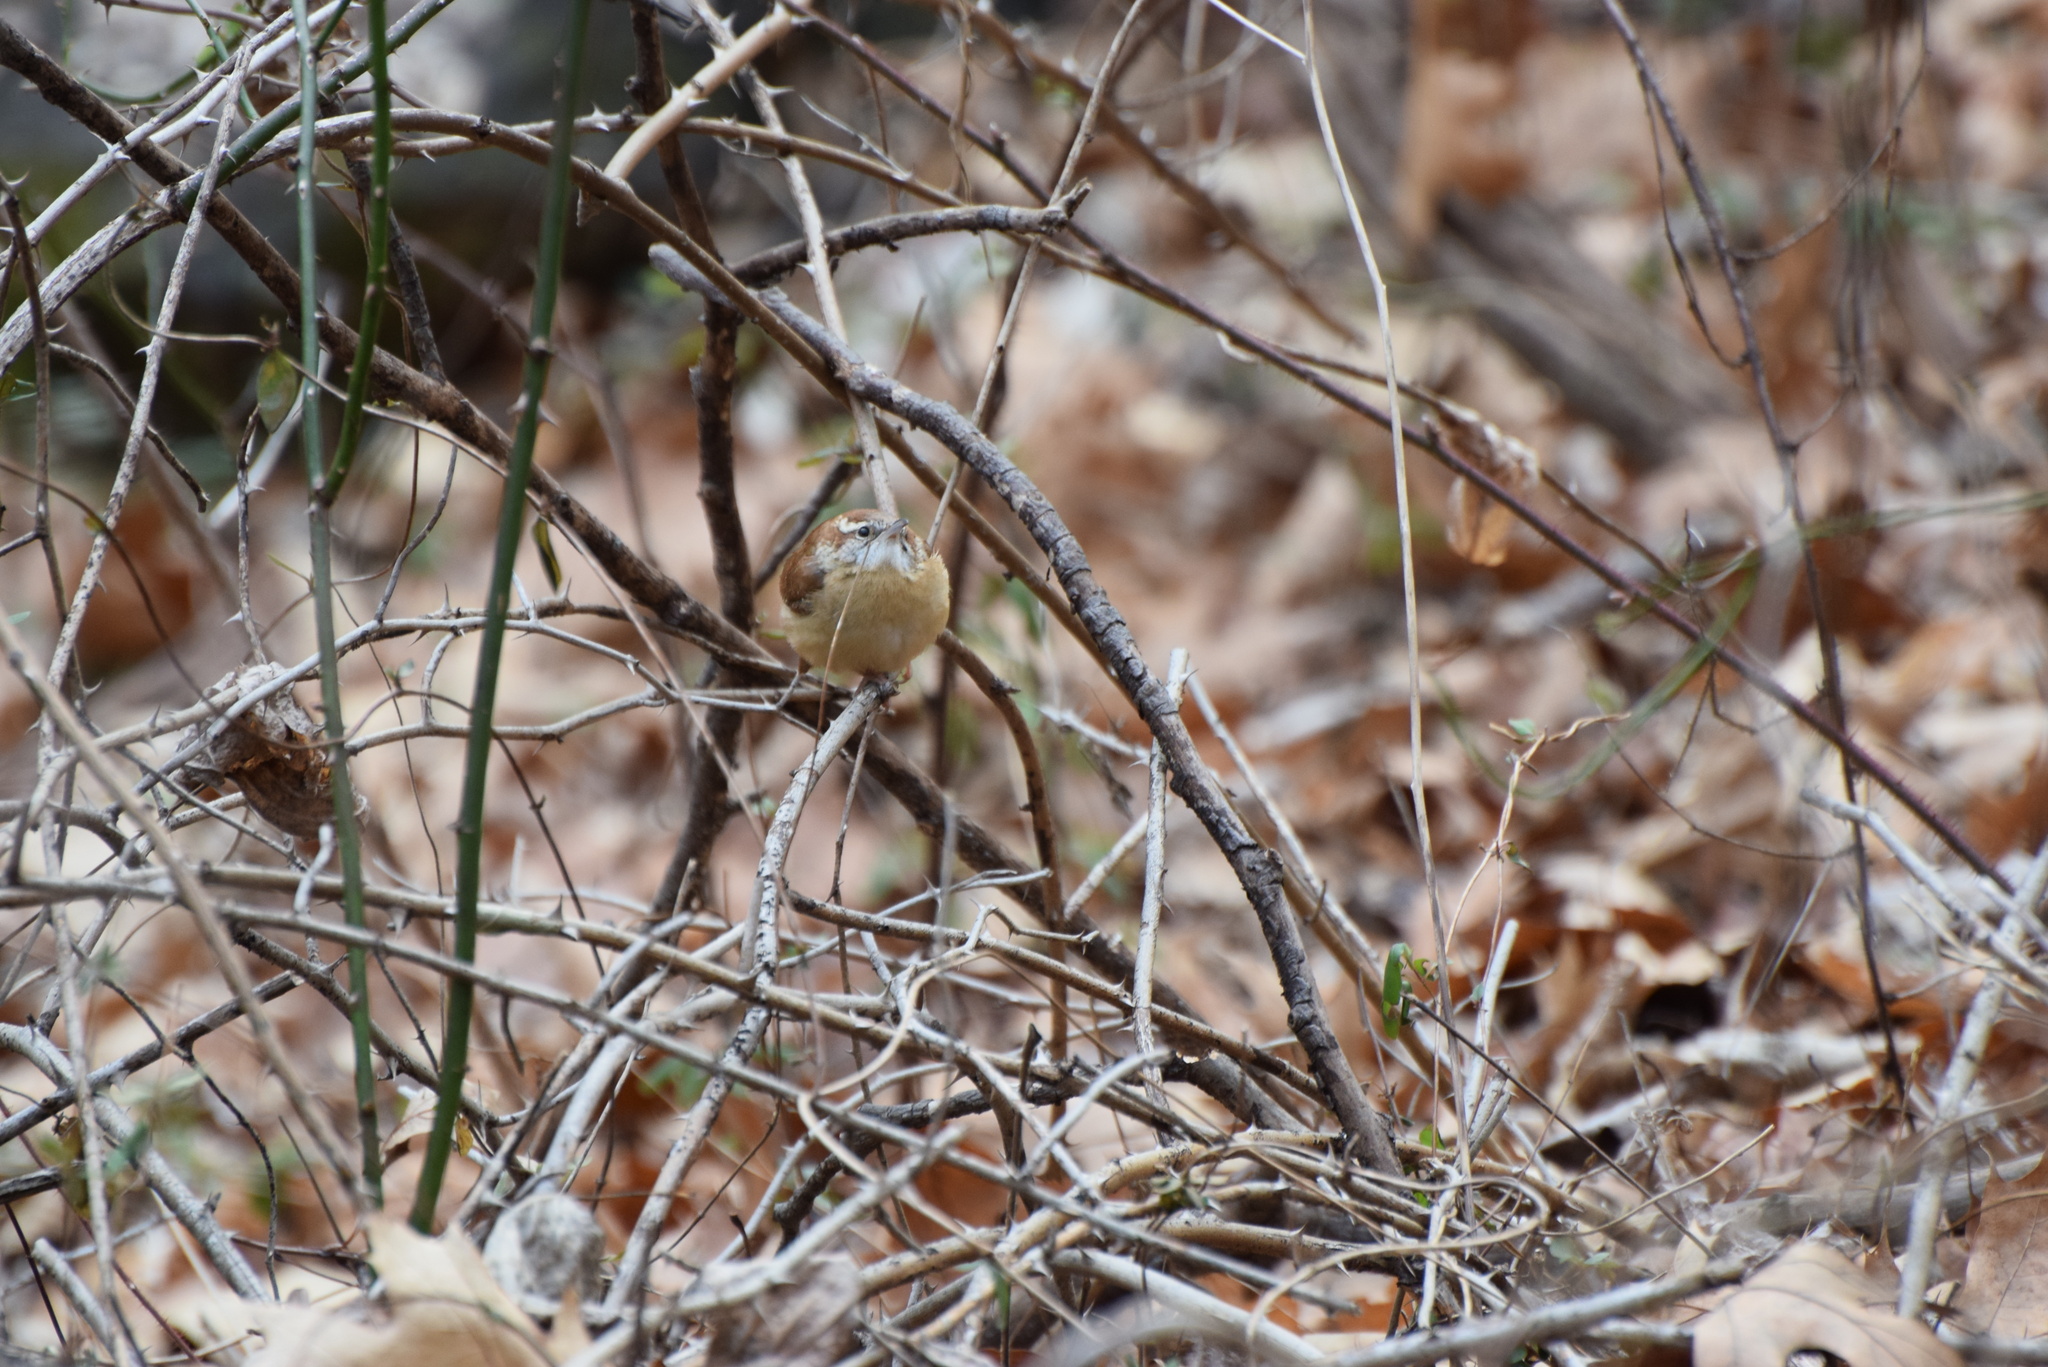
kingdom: Animalia
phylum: Chordata
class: Aves
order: Passeriformes
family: Troglodytidae
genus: Thryothorus
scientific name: Thryothorus ludovicianus
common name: Carolina wren
